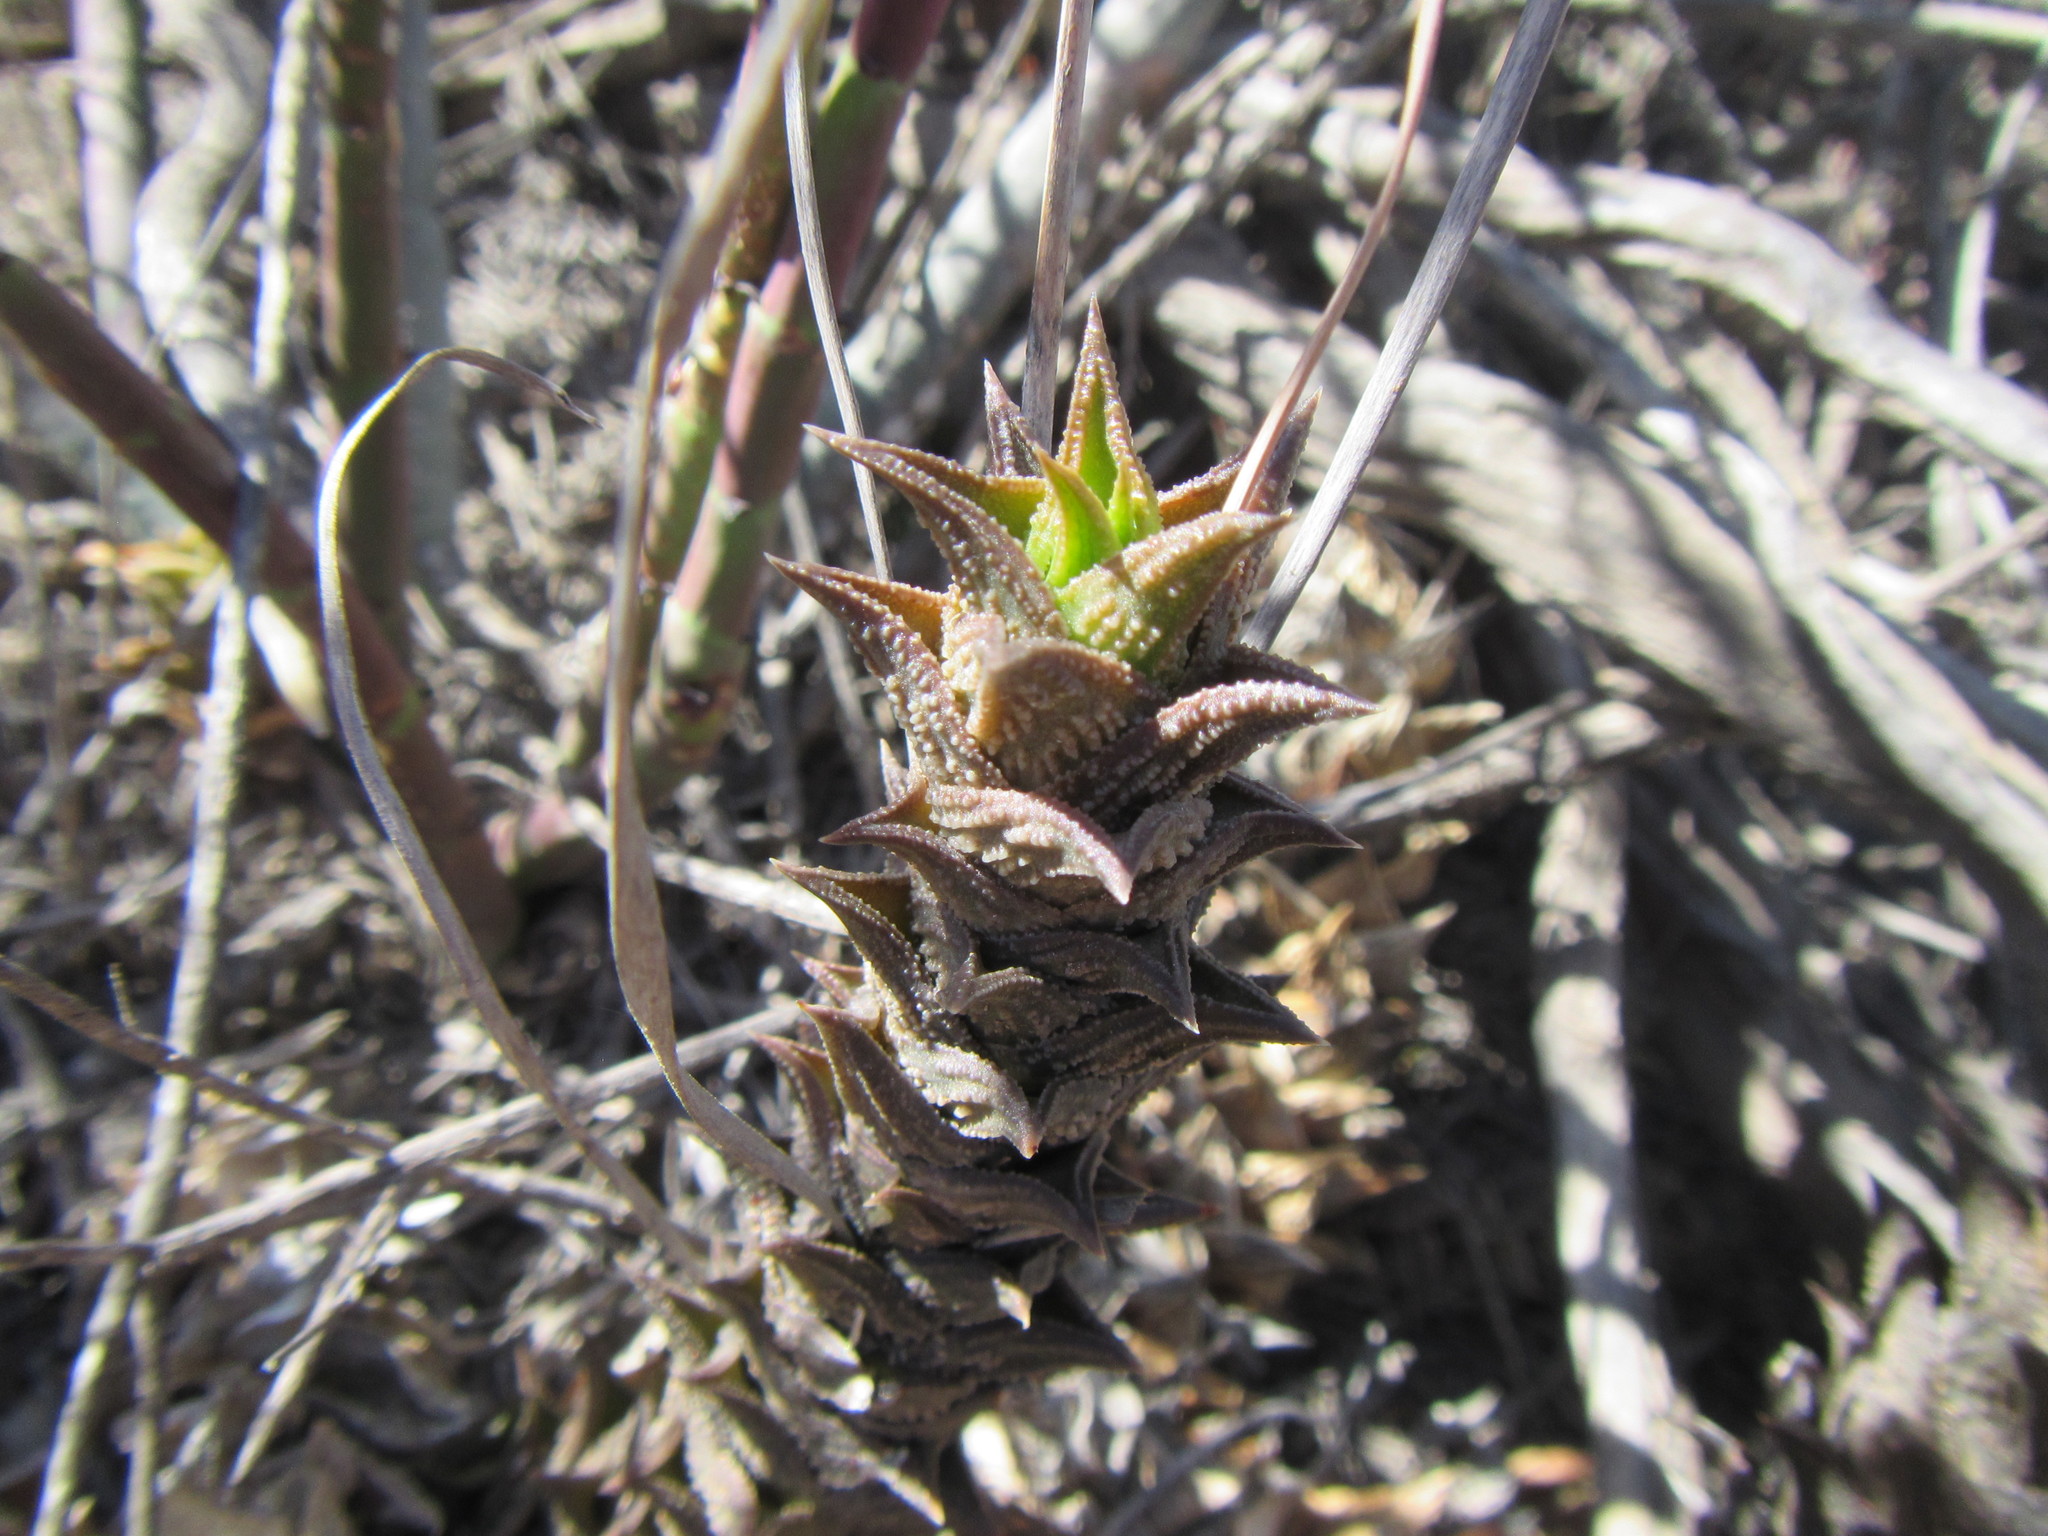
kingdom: Plantae
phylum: Tracheophyta
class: Liliopsida
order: Asparagales
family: Asphodelaceae
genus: Astroloba
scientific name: Astroloba corrugata
